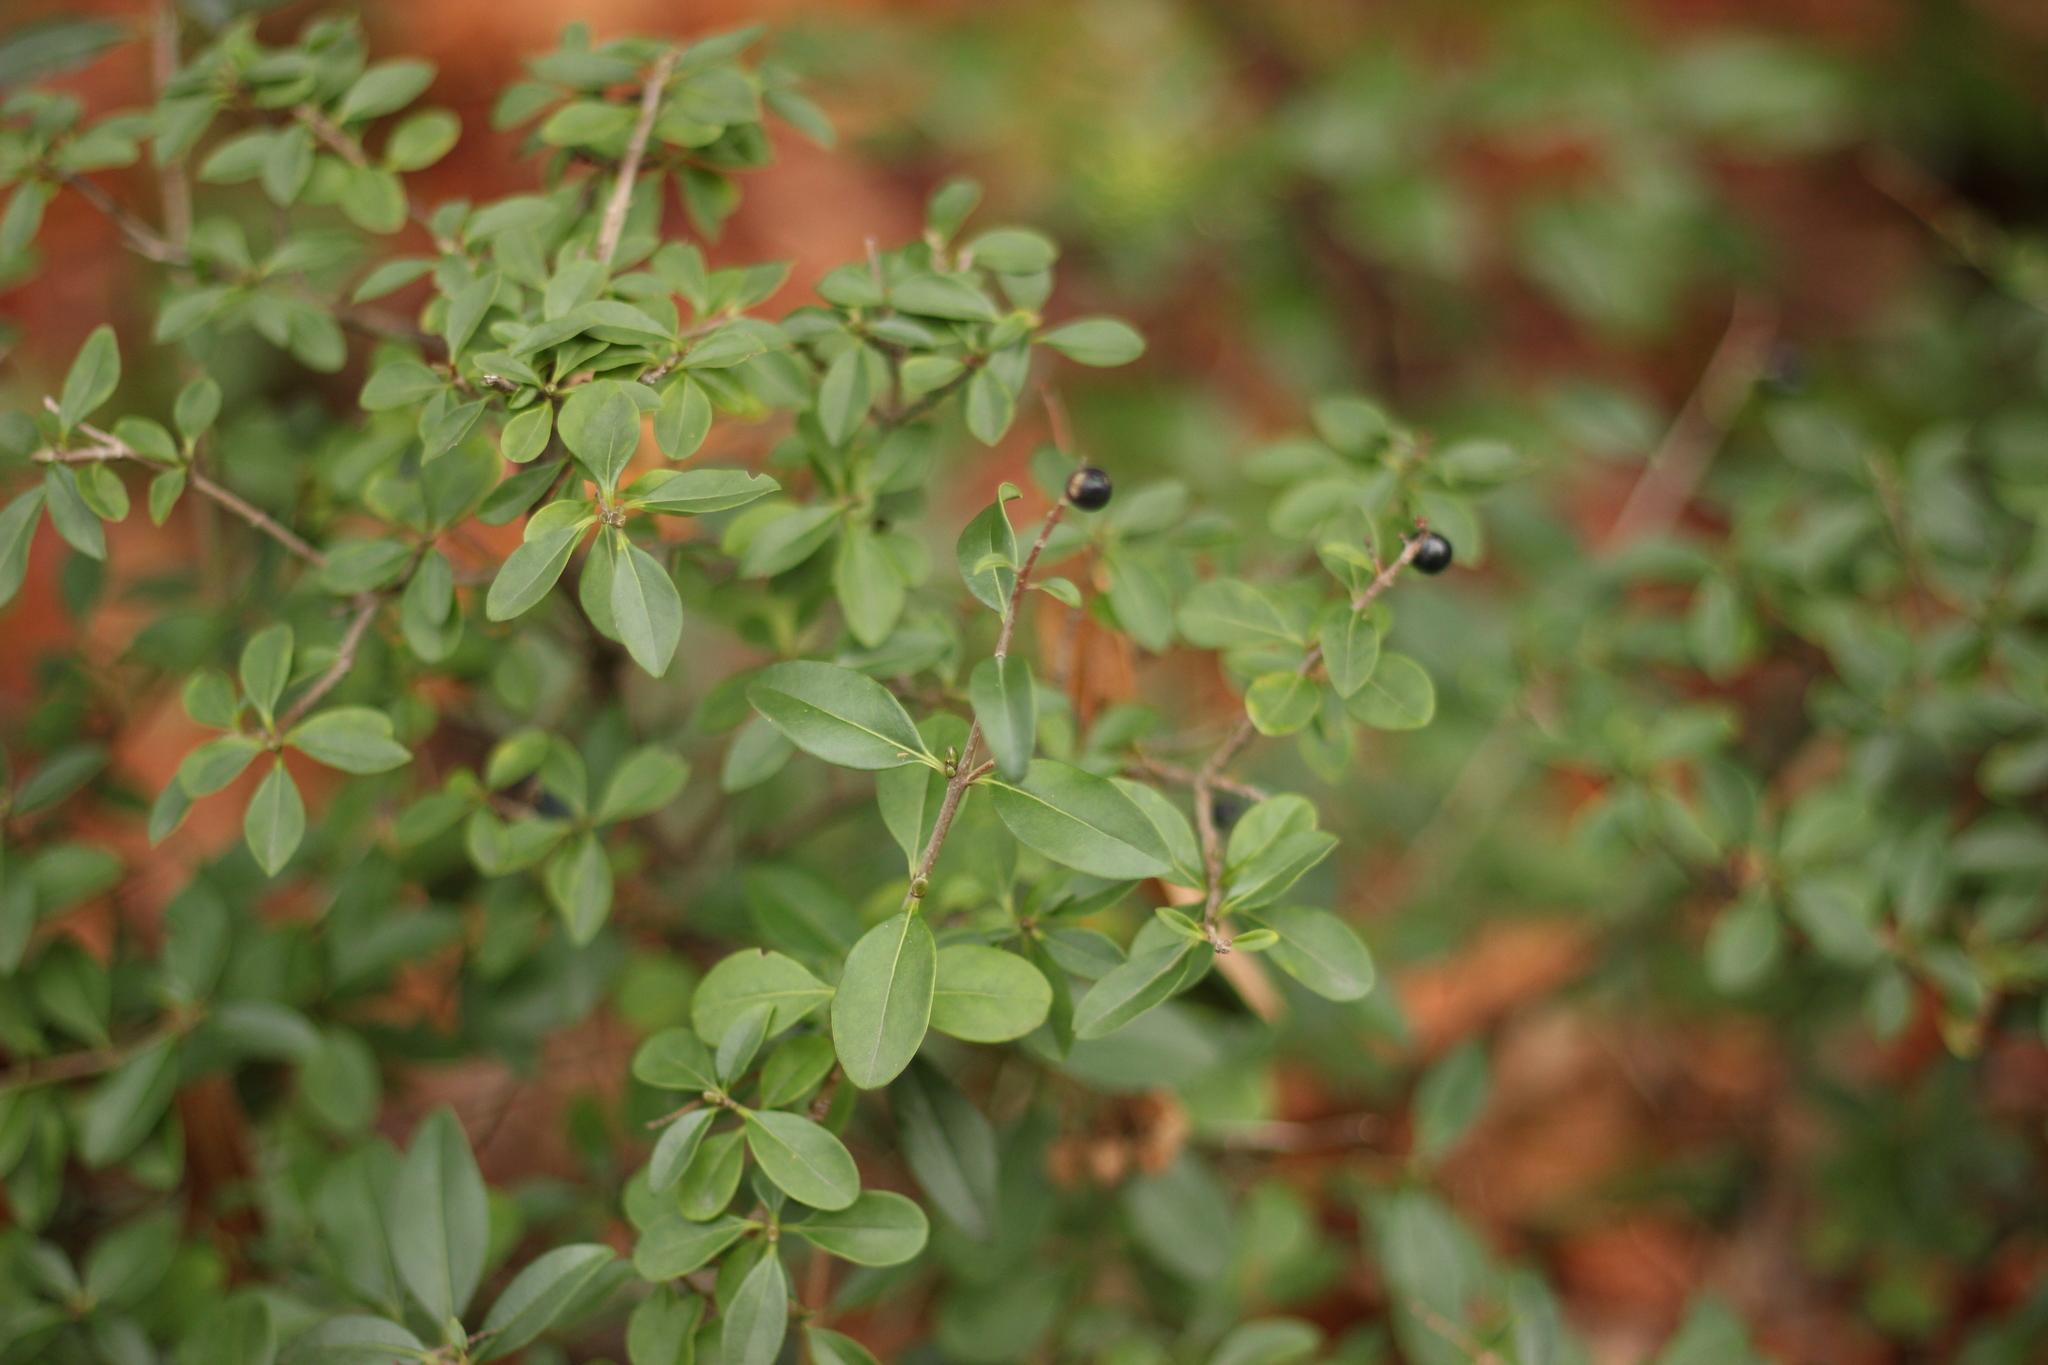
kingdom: Plantae
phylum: Tracheophyta
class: Magnoliopsida
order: Lamiales
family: Oleaceae
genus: Ligustrum
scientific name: Ligustrum vulgare
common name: Wild privet
